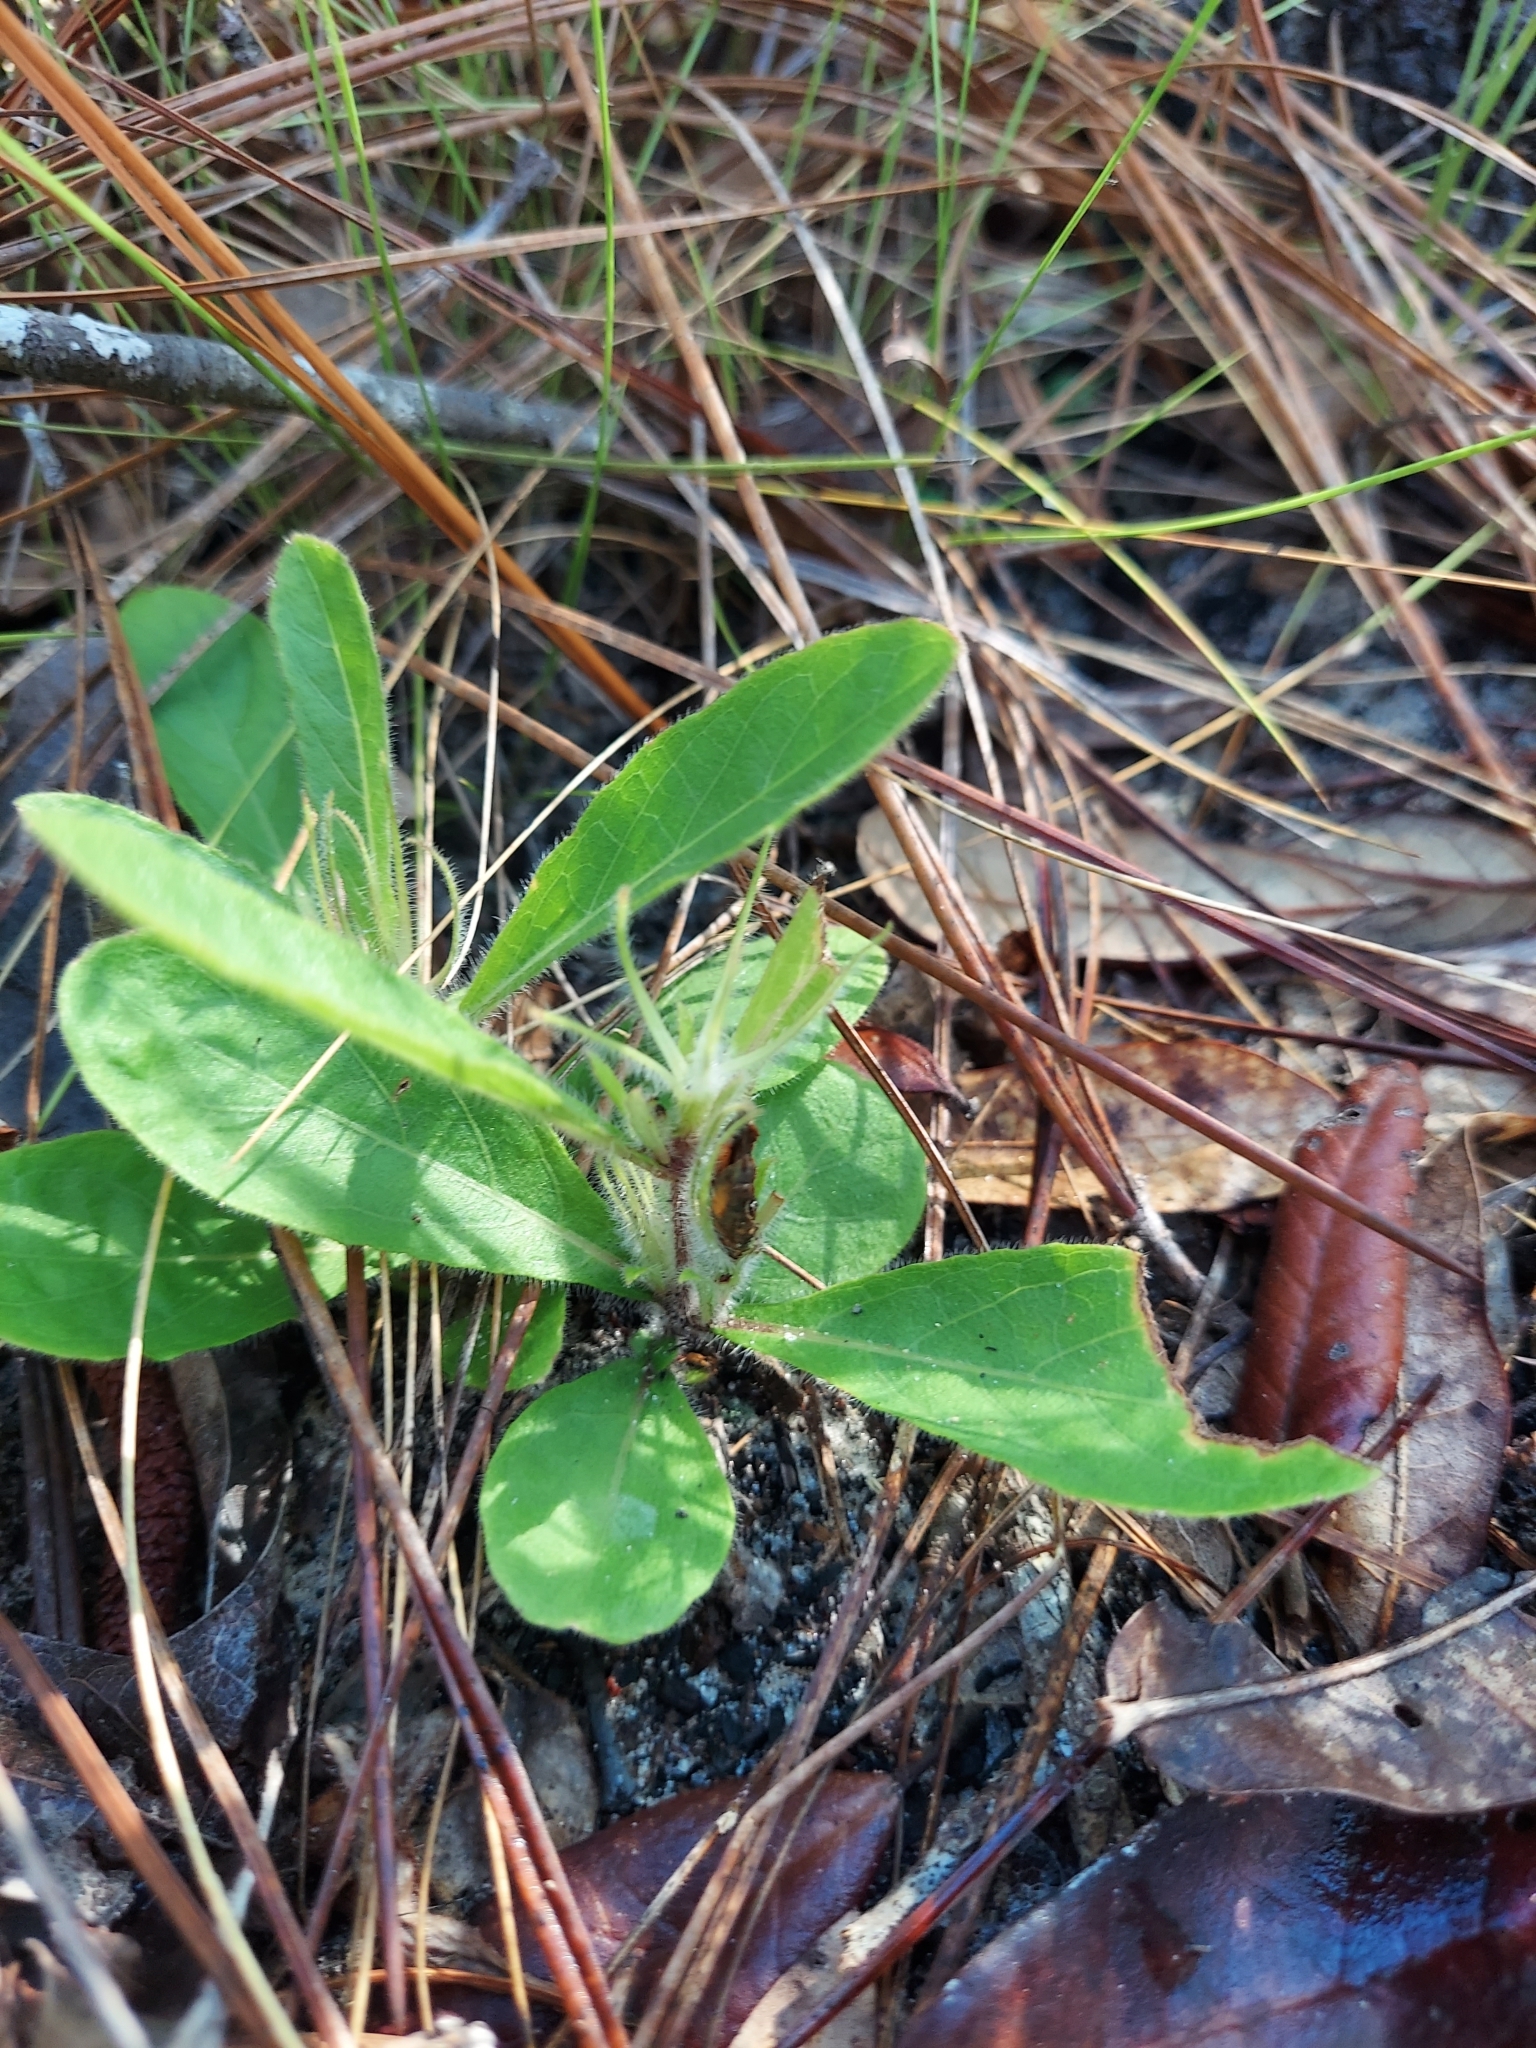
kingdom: Plantae
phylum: Tracheophyta
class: Magnoliopsida
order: Lamiales
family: Acanthaceae
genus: Ruellia
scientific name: Ruellia caroliniensis
